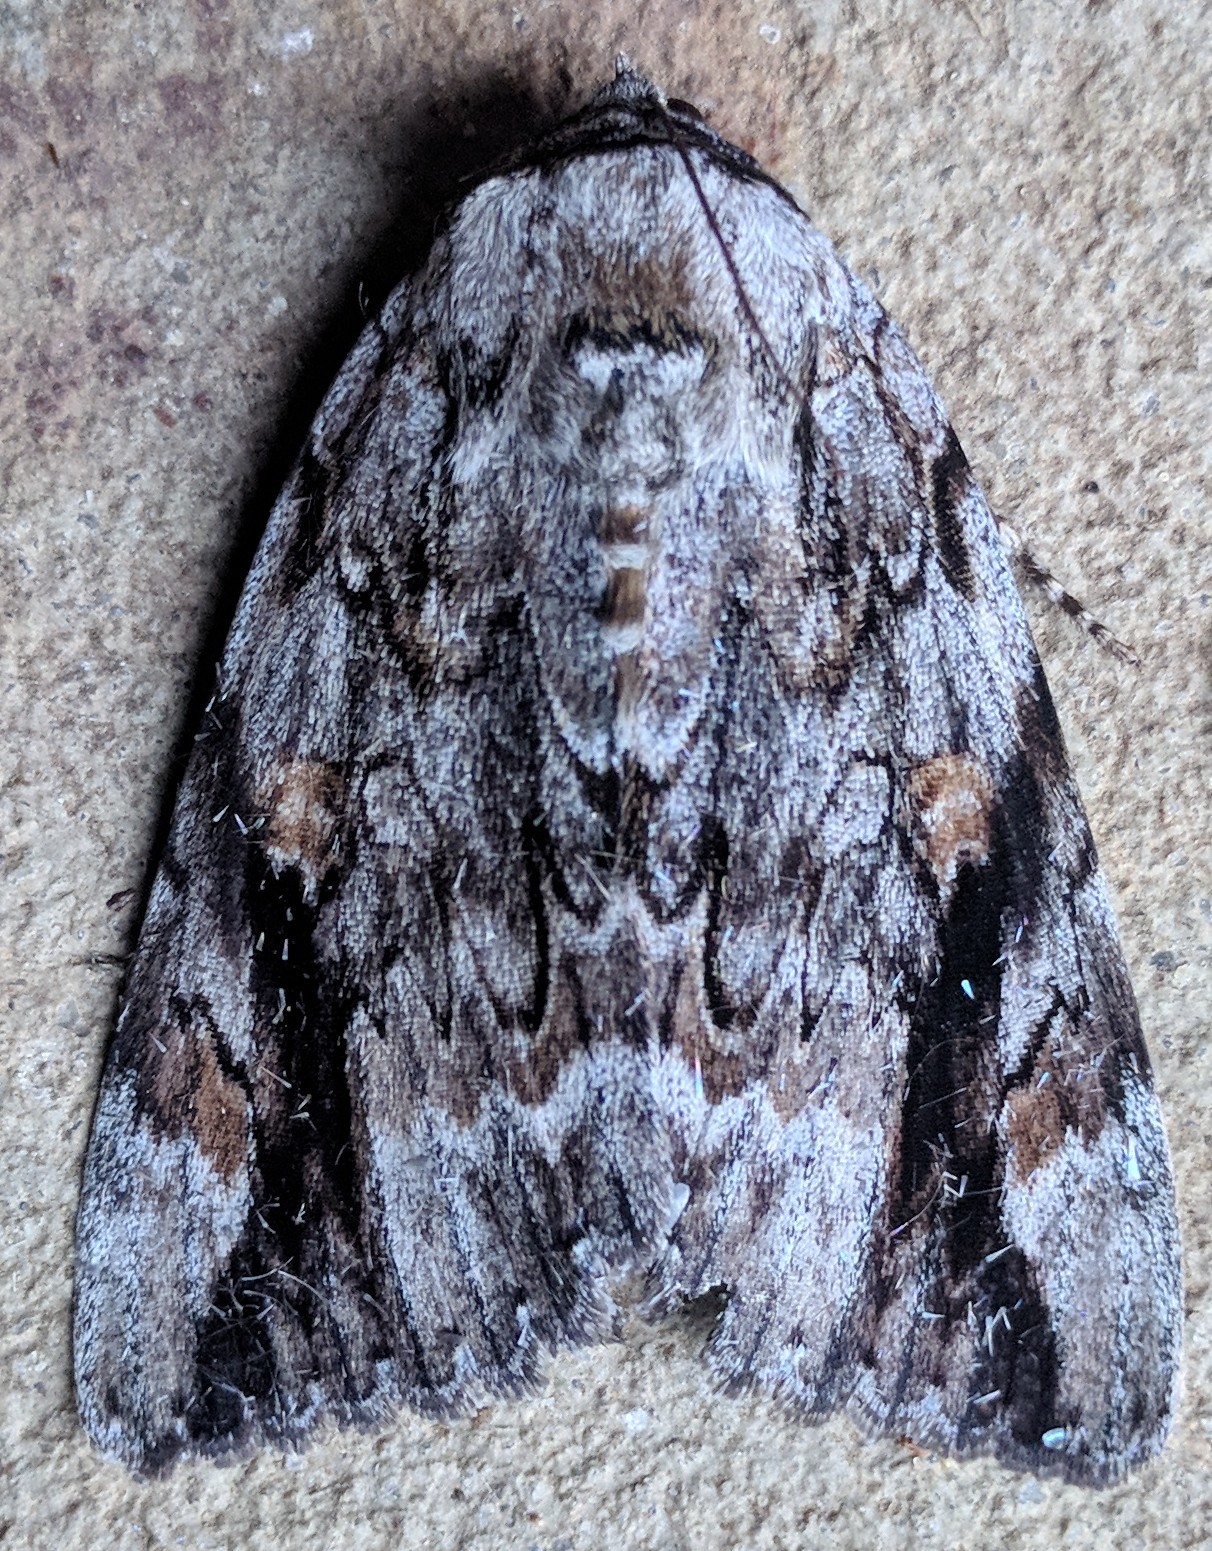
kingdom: Animalia
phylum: Arthropoda
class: Insecta
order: Lepidoptera
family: Erebidae
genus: Catocala
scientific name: Catocala maestosa
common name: Sad underwing
